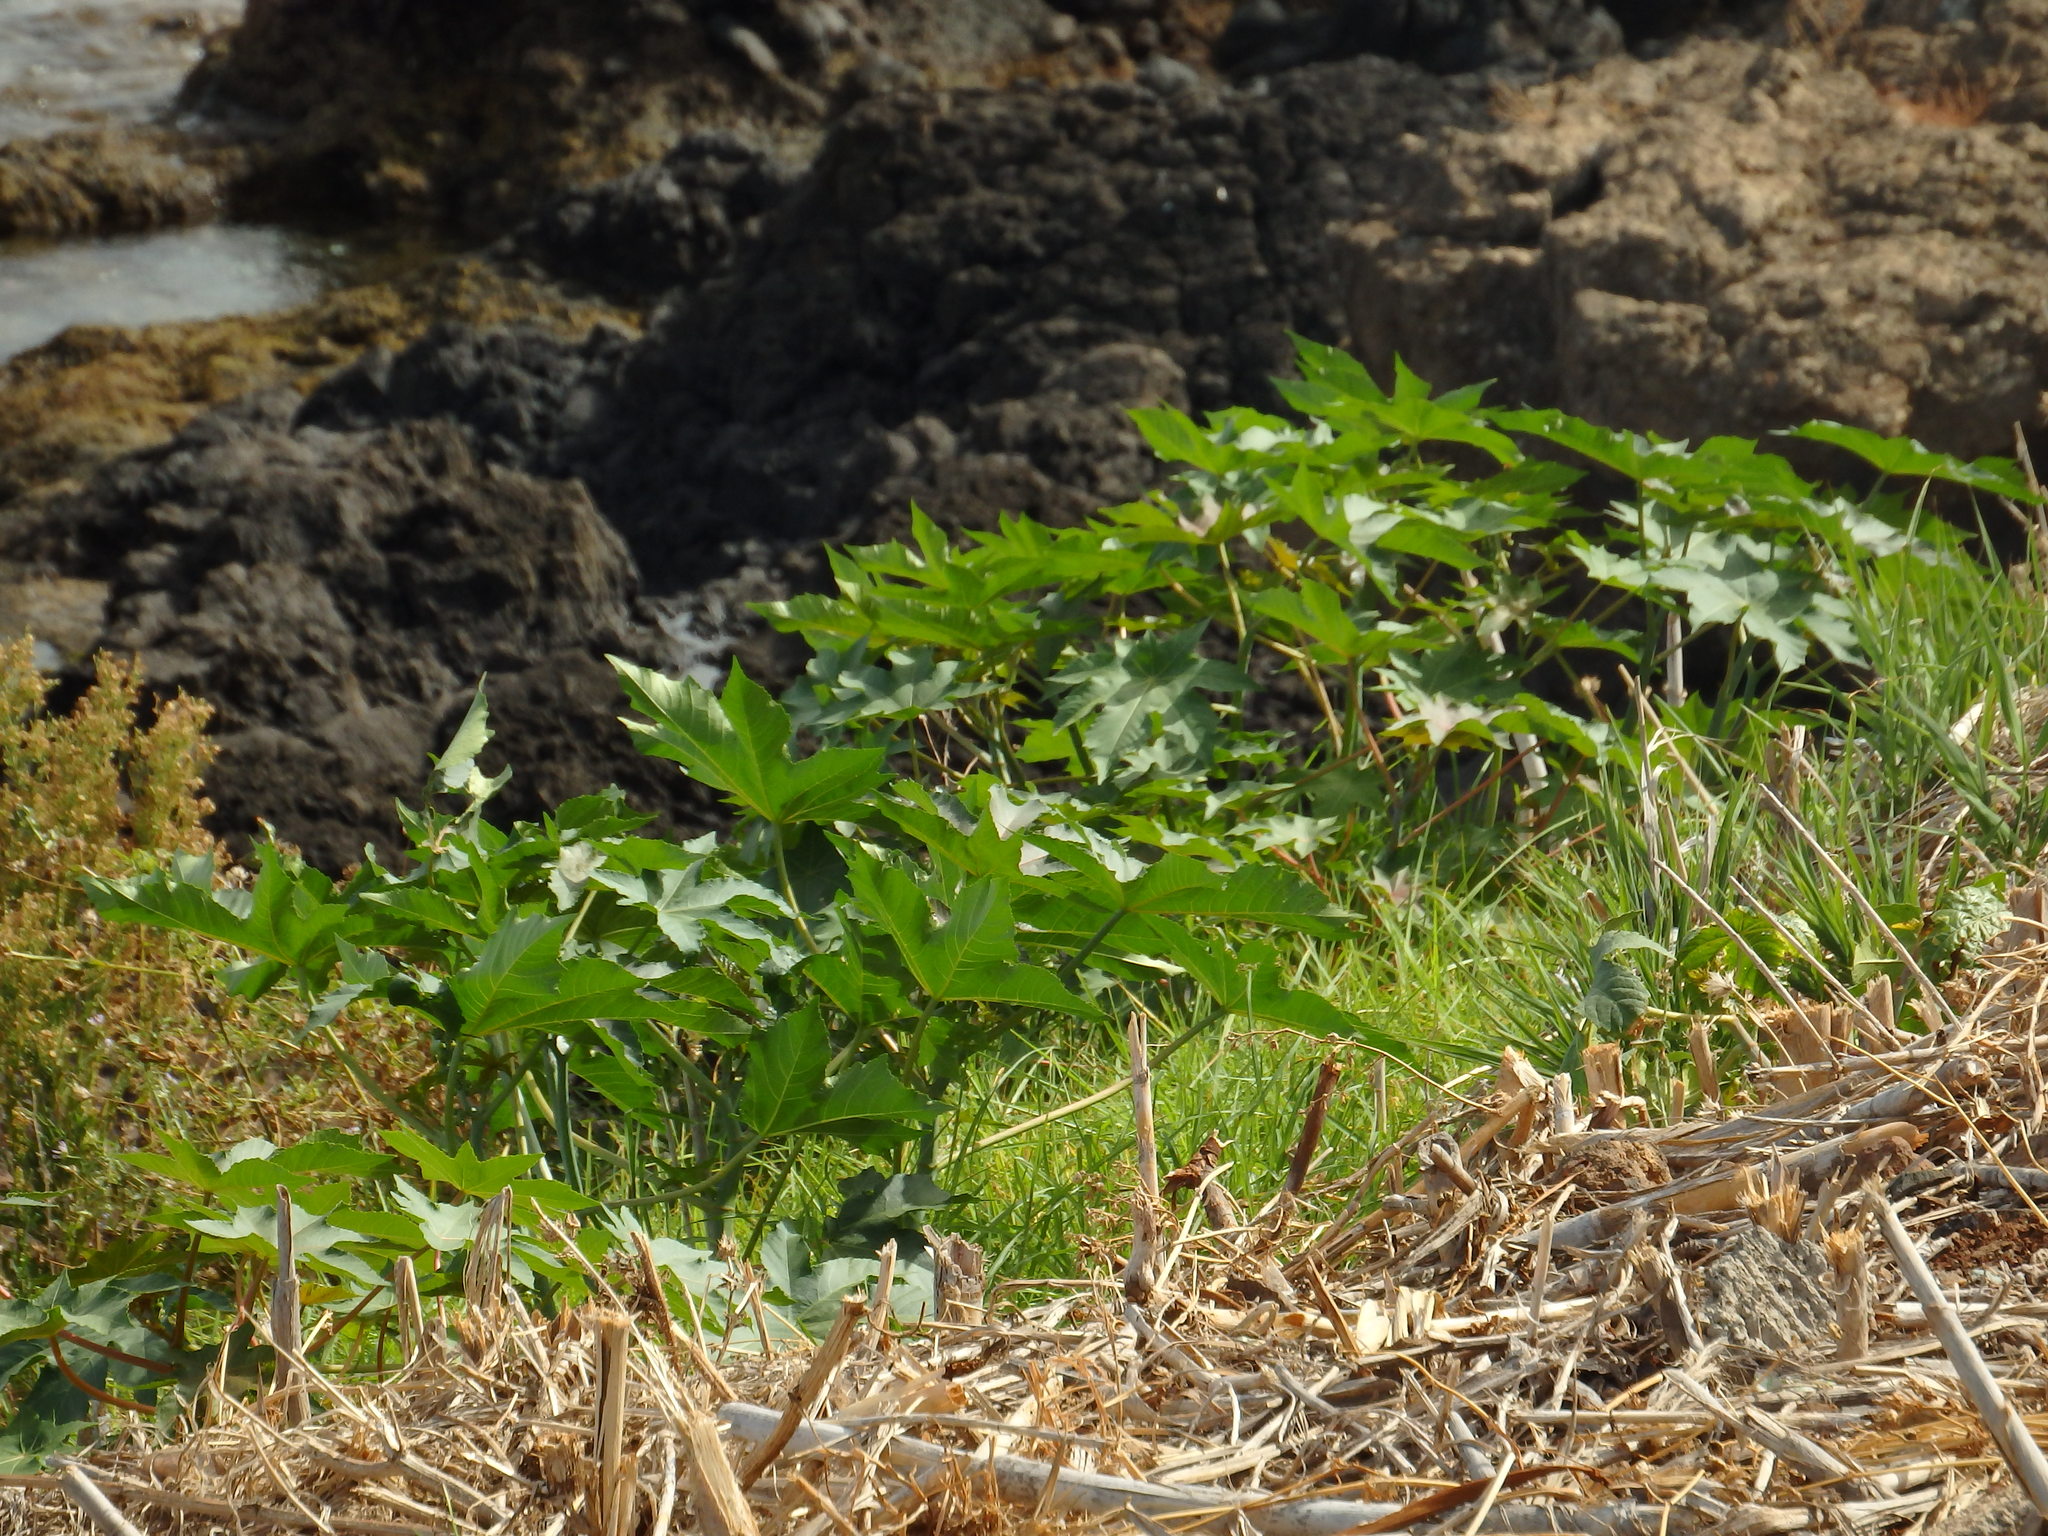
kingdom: Plantae
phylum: Tracheophyta
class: Magnoliopsida
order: Malpighiales
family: Euphorbiaceae
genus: Ricinus
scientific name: Ricinus communis
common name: Castor-oil-plant
